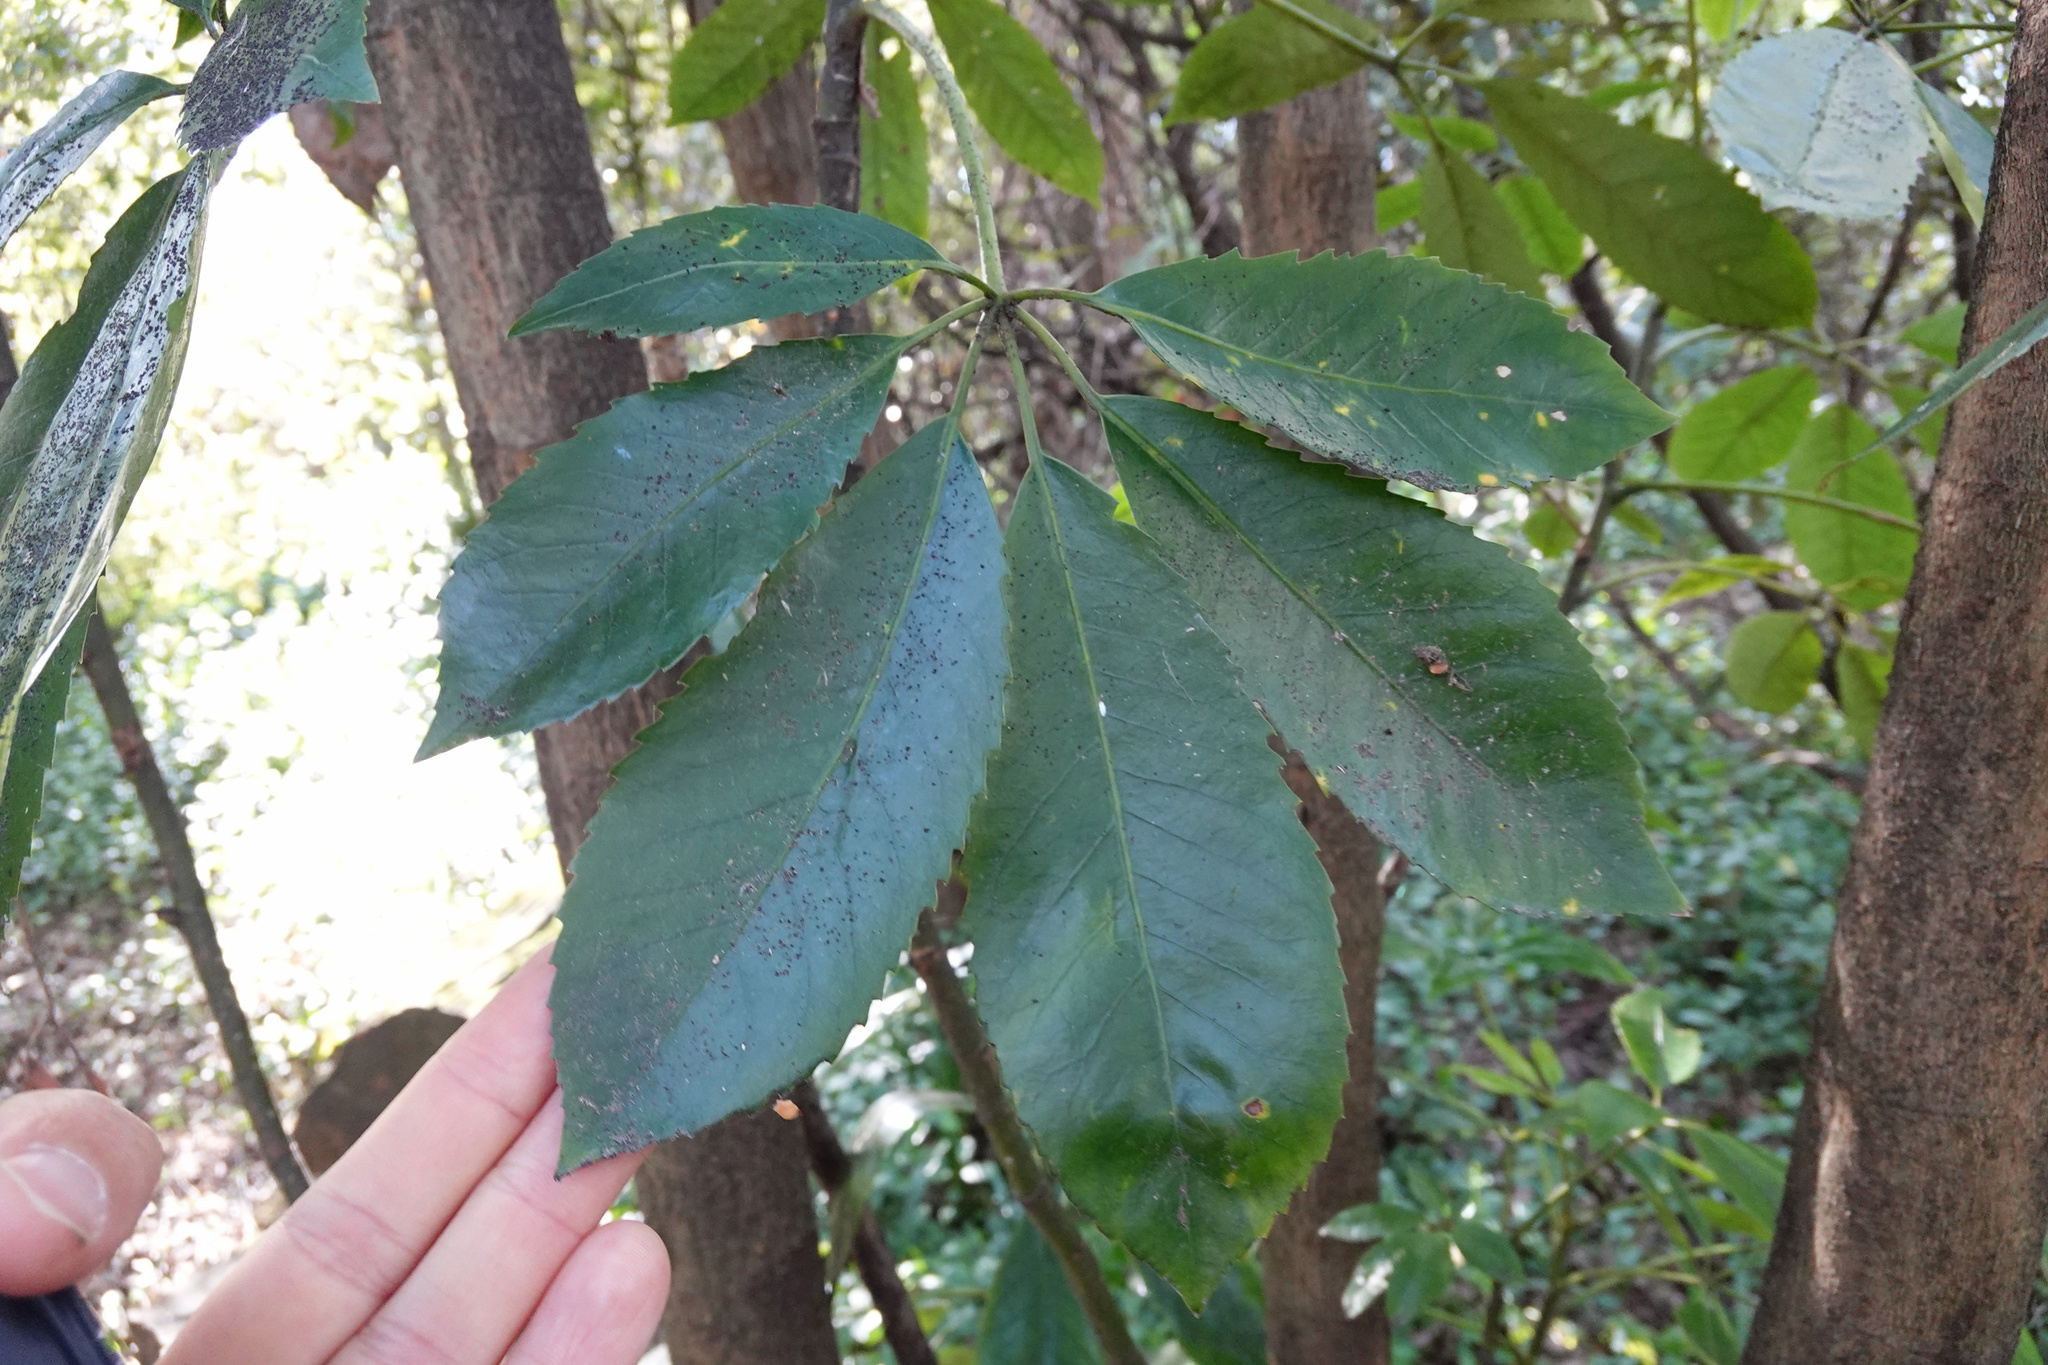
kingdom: Plantae
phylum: Tracheophyta
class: Magnoliopsida
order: Apiales
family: Araliaceae
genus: Neopanax
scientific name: Neopanax arboreus
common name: Five-fingers
